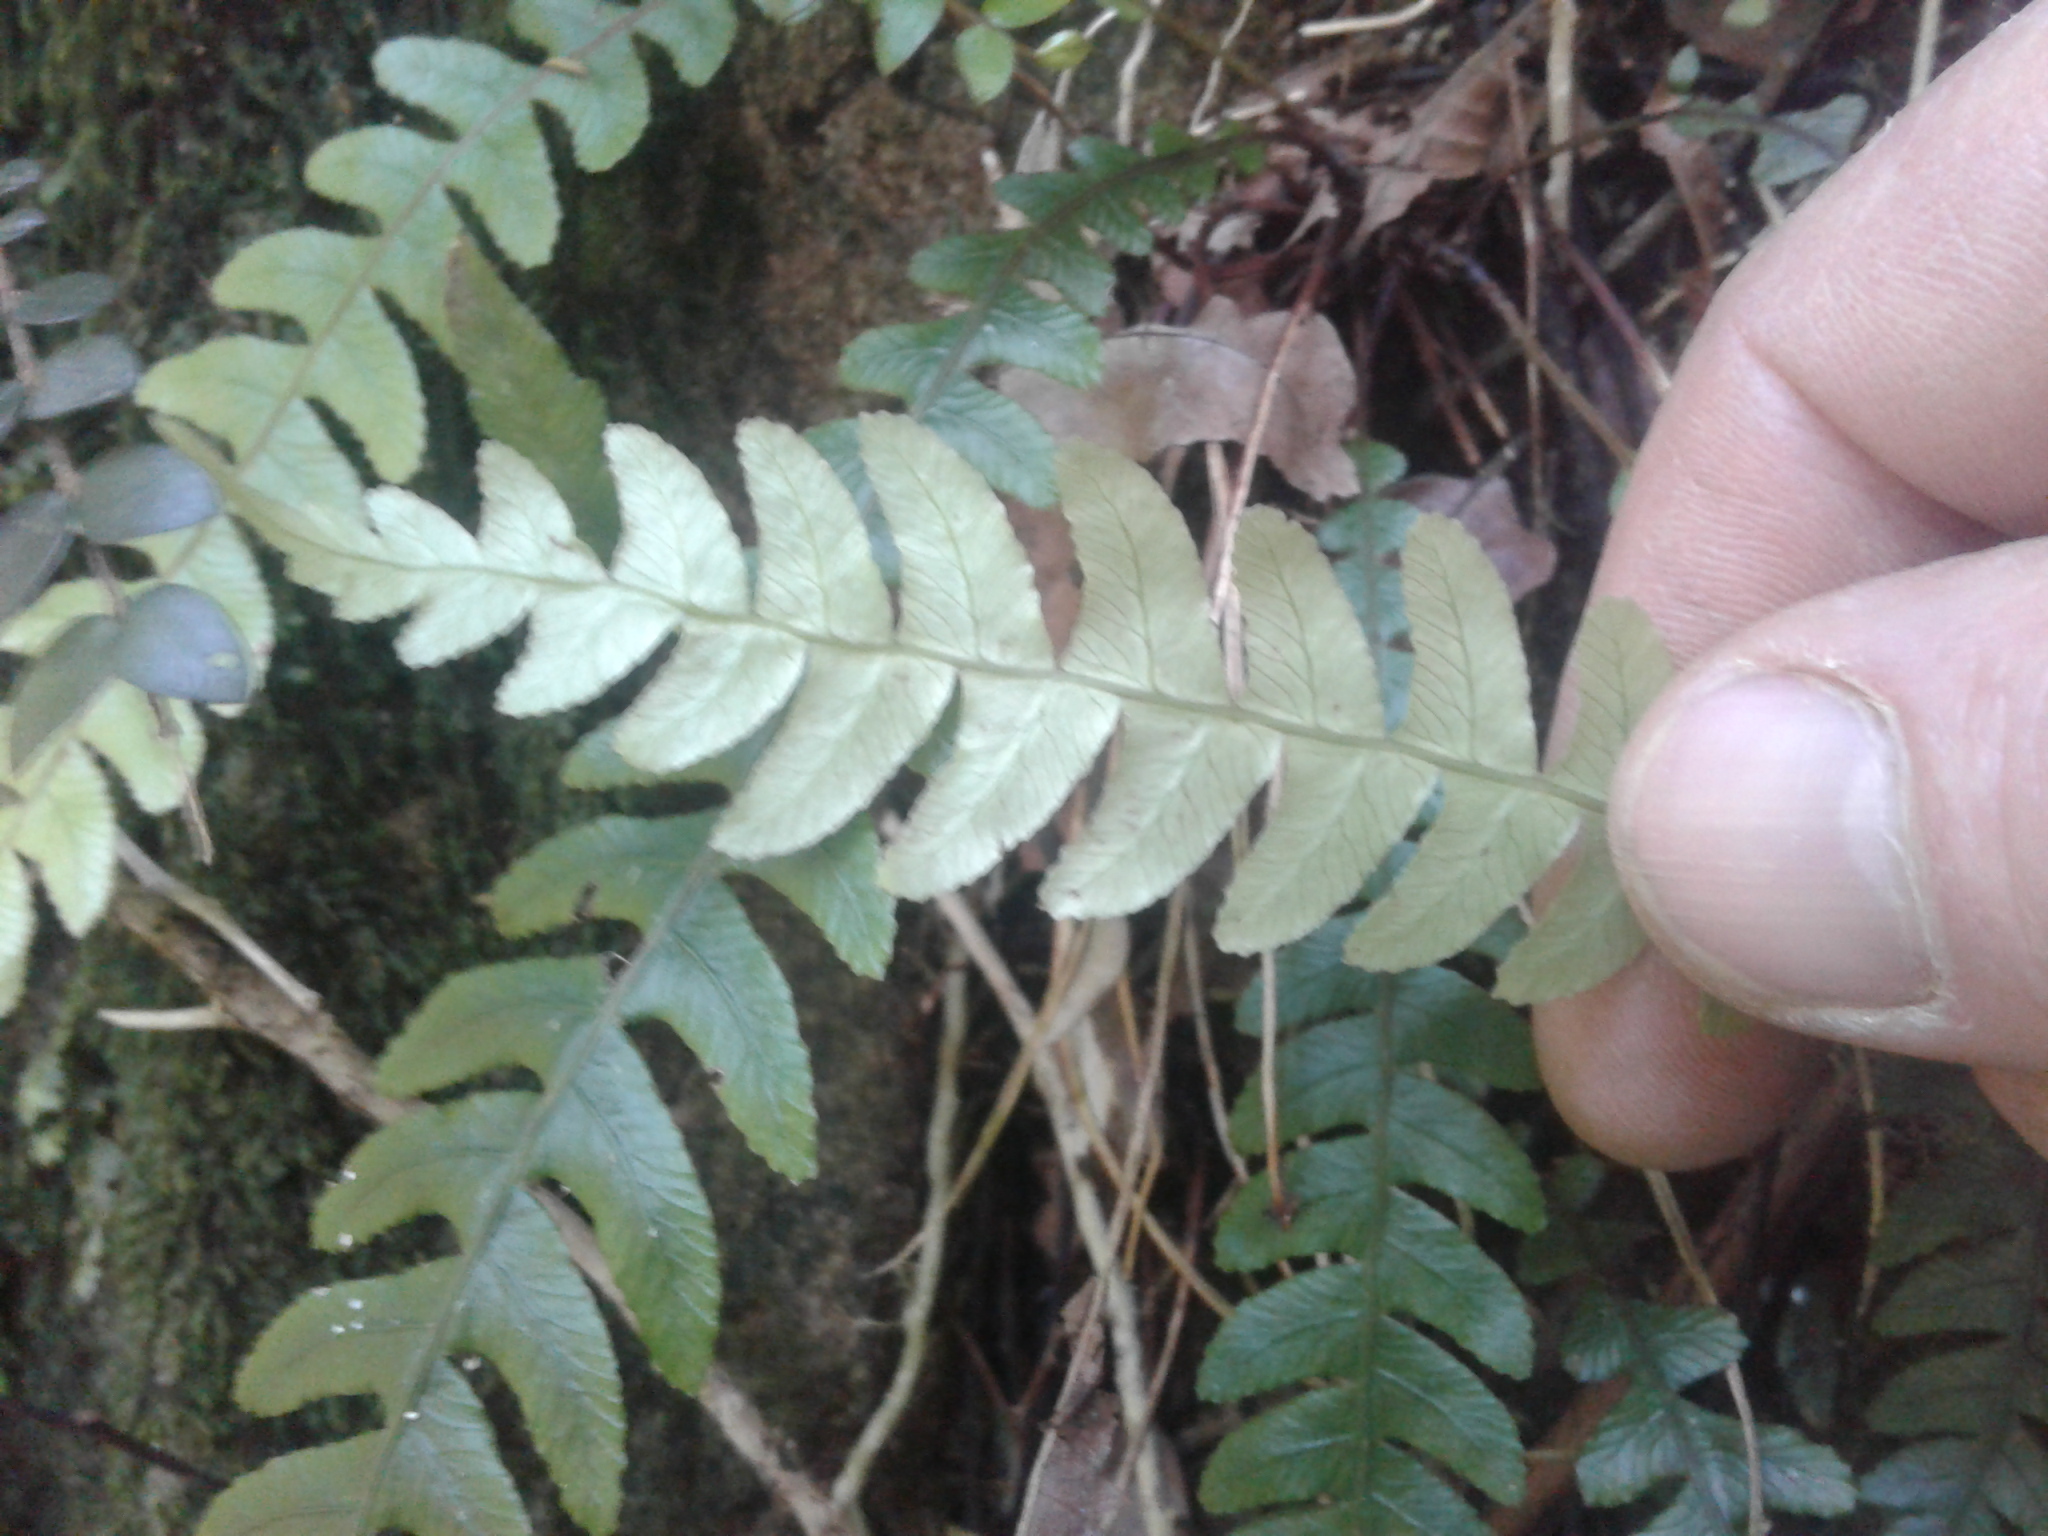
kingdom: Plantae
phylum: Tracheophyta
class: Polypodiopsida
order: Polypodiales
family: Blechnaceae
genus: Austroblechnum
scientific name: Austroblechnum lanceolatum
